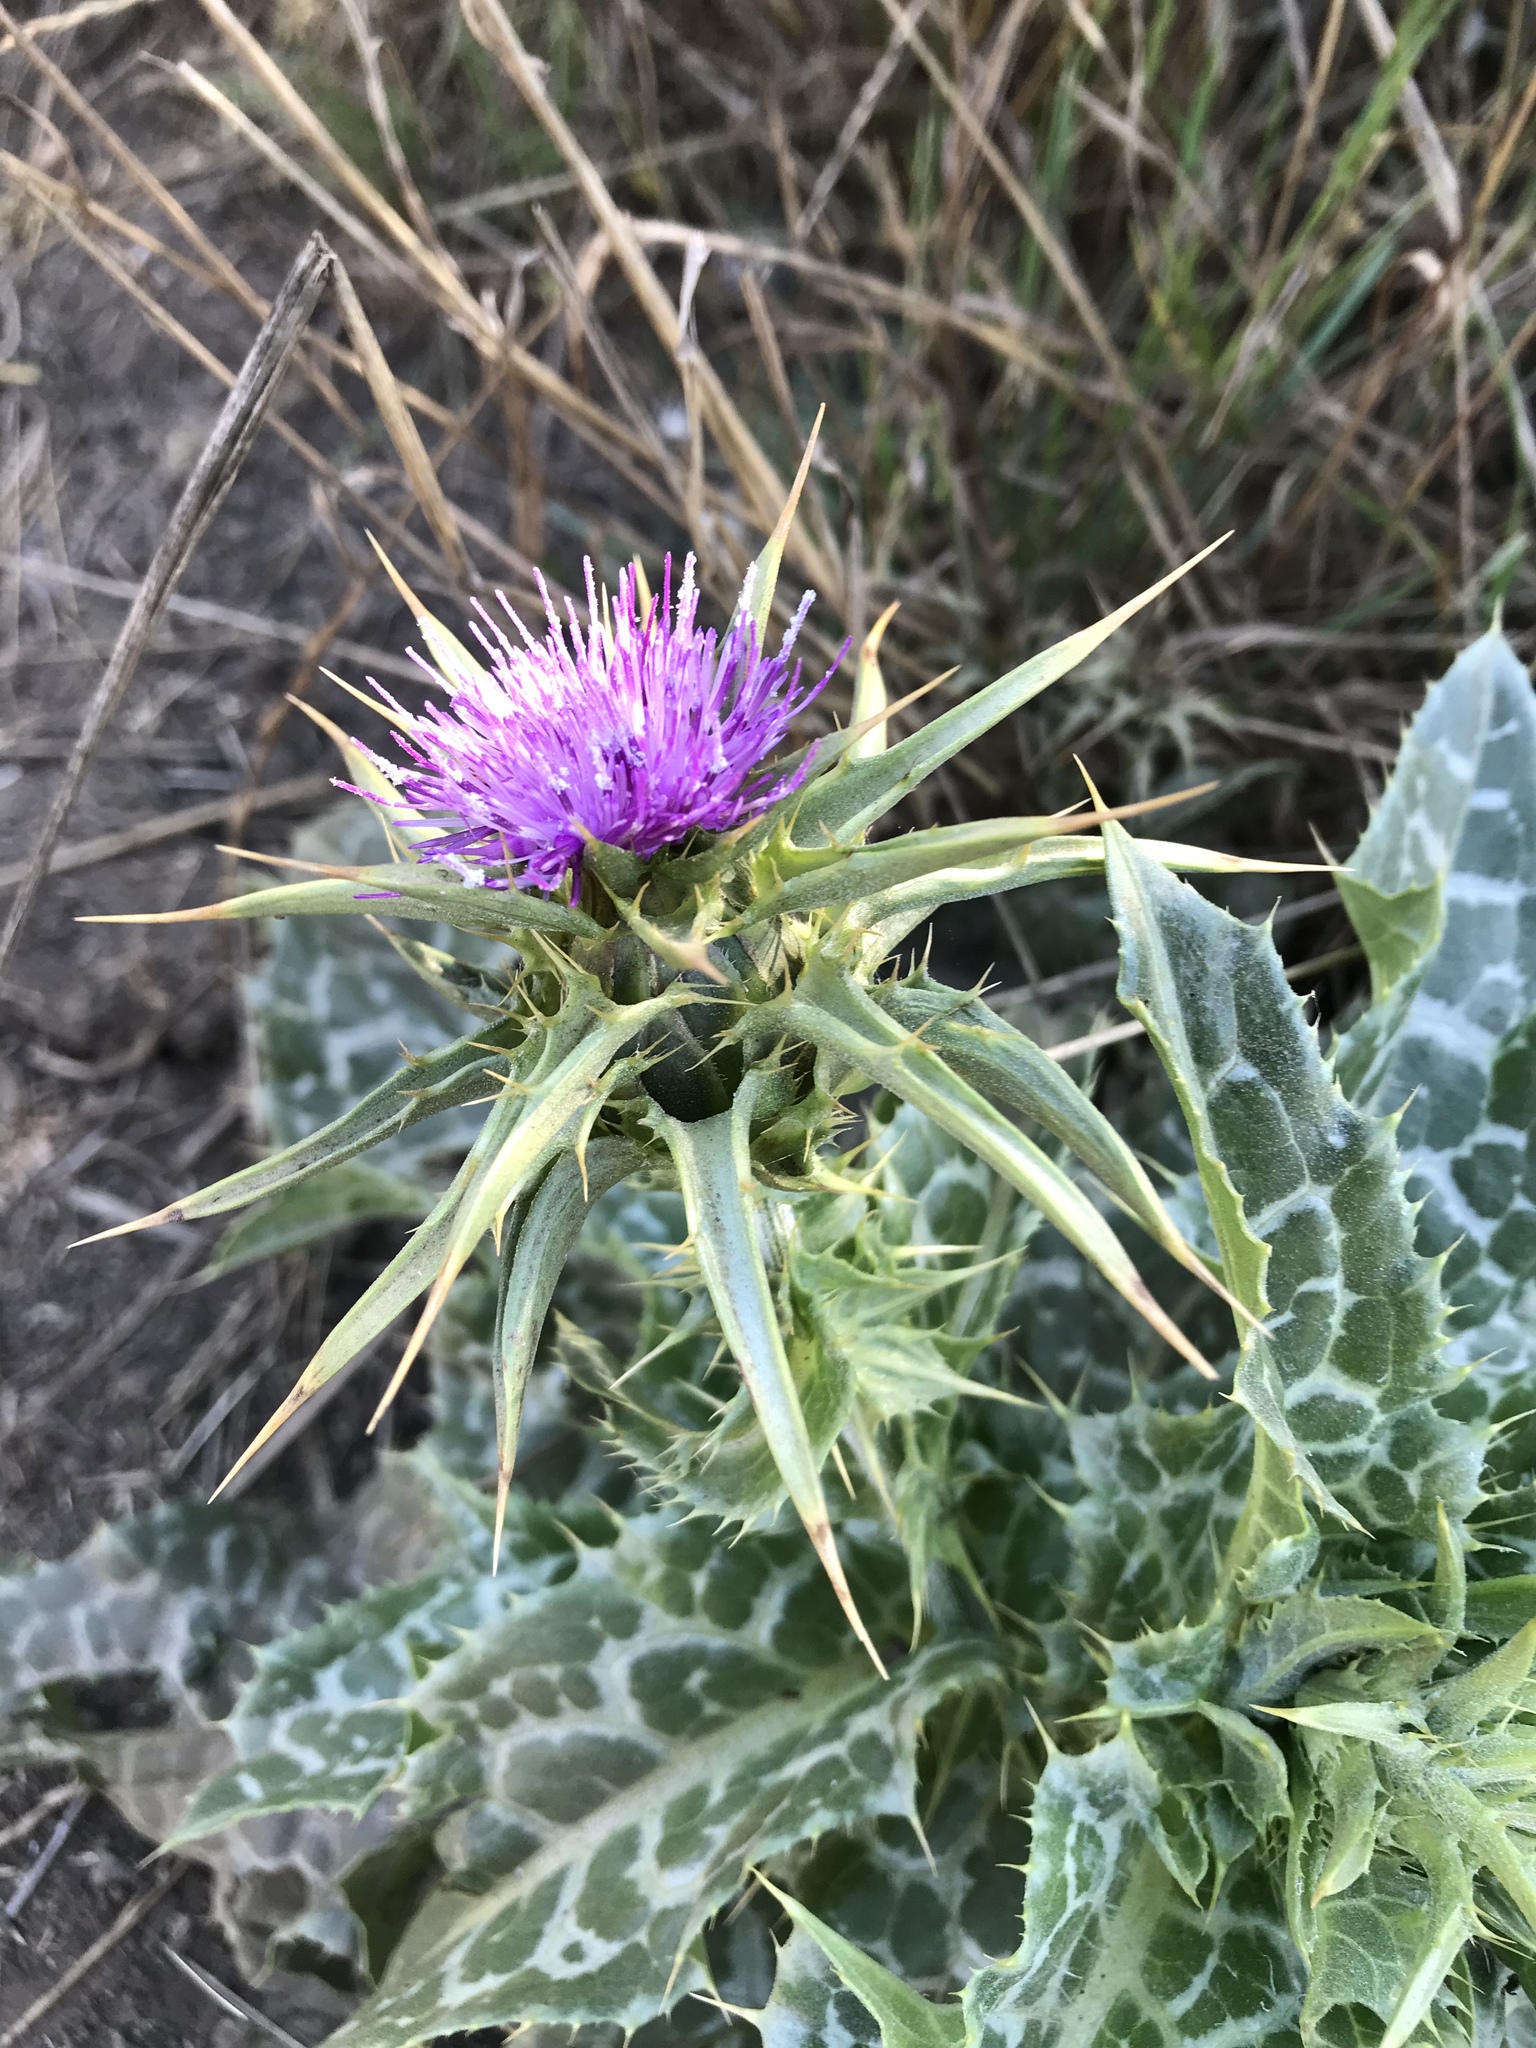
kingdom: Plantae
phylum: Tracheophyta
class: Magnoliopsida
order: Asterales
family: Asteraceae
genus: Silybum
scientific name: Silybum marianum
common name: Milk thistle
